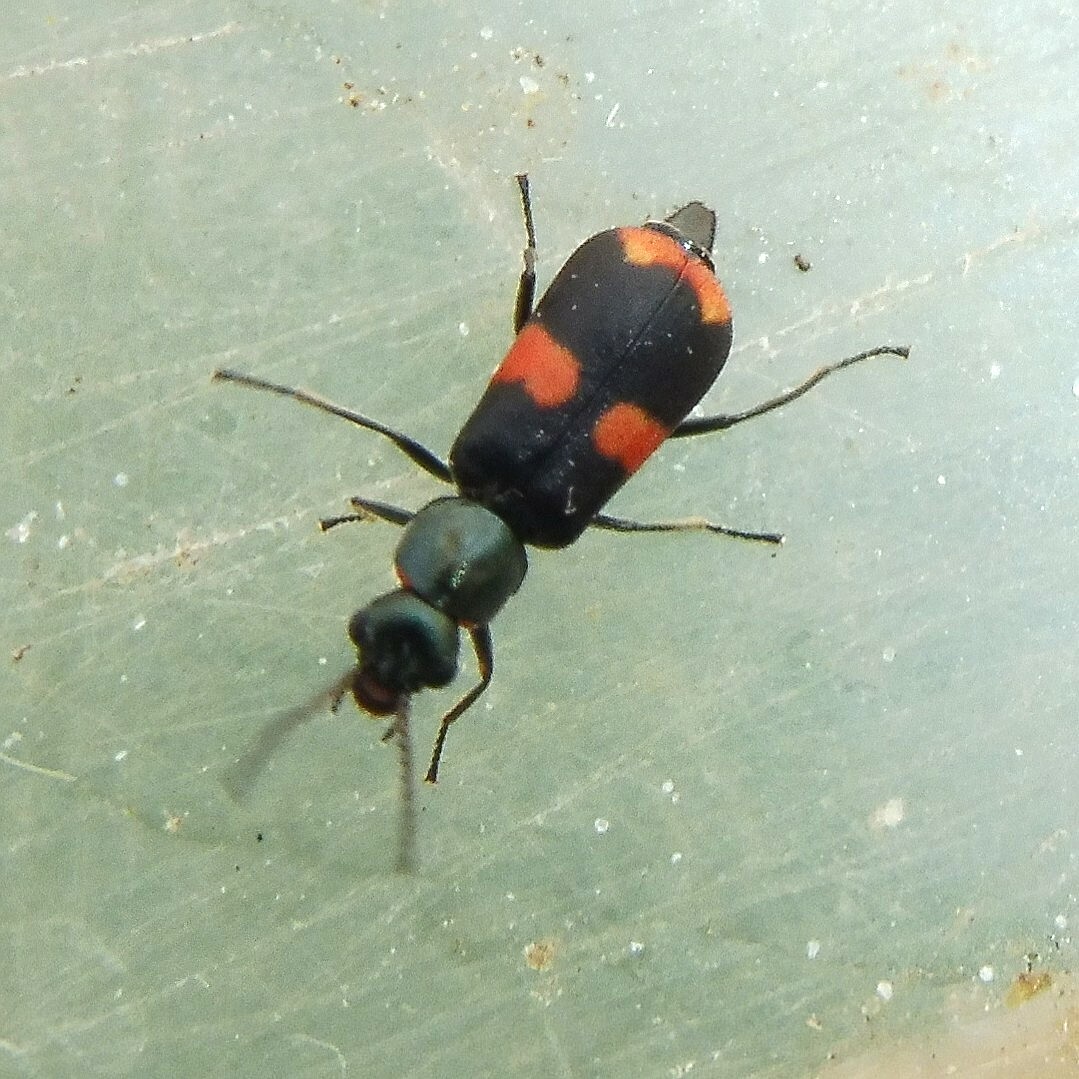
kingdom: Animalia
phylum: Arthropoda
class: Insecta
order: Coleoptera
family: Melyridae
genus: Anthocomus
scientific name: Anthocomus fasciatus
